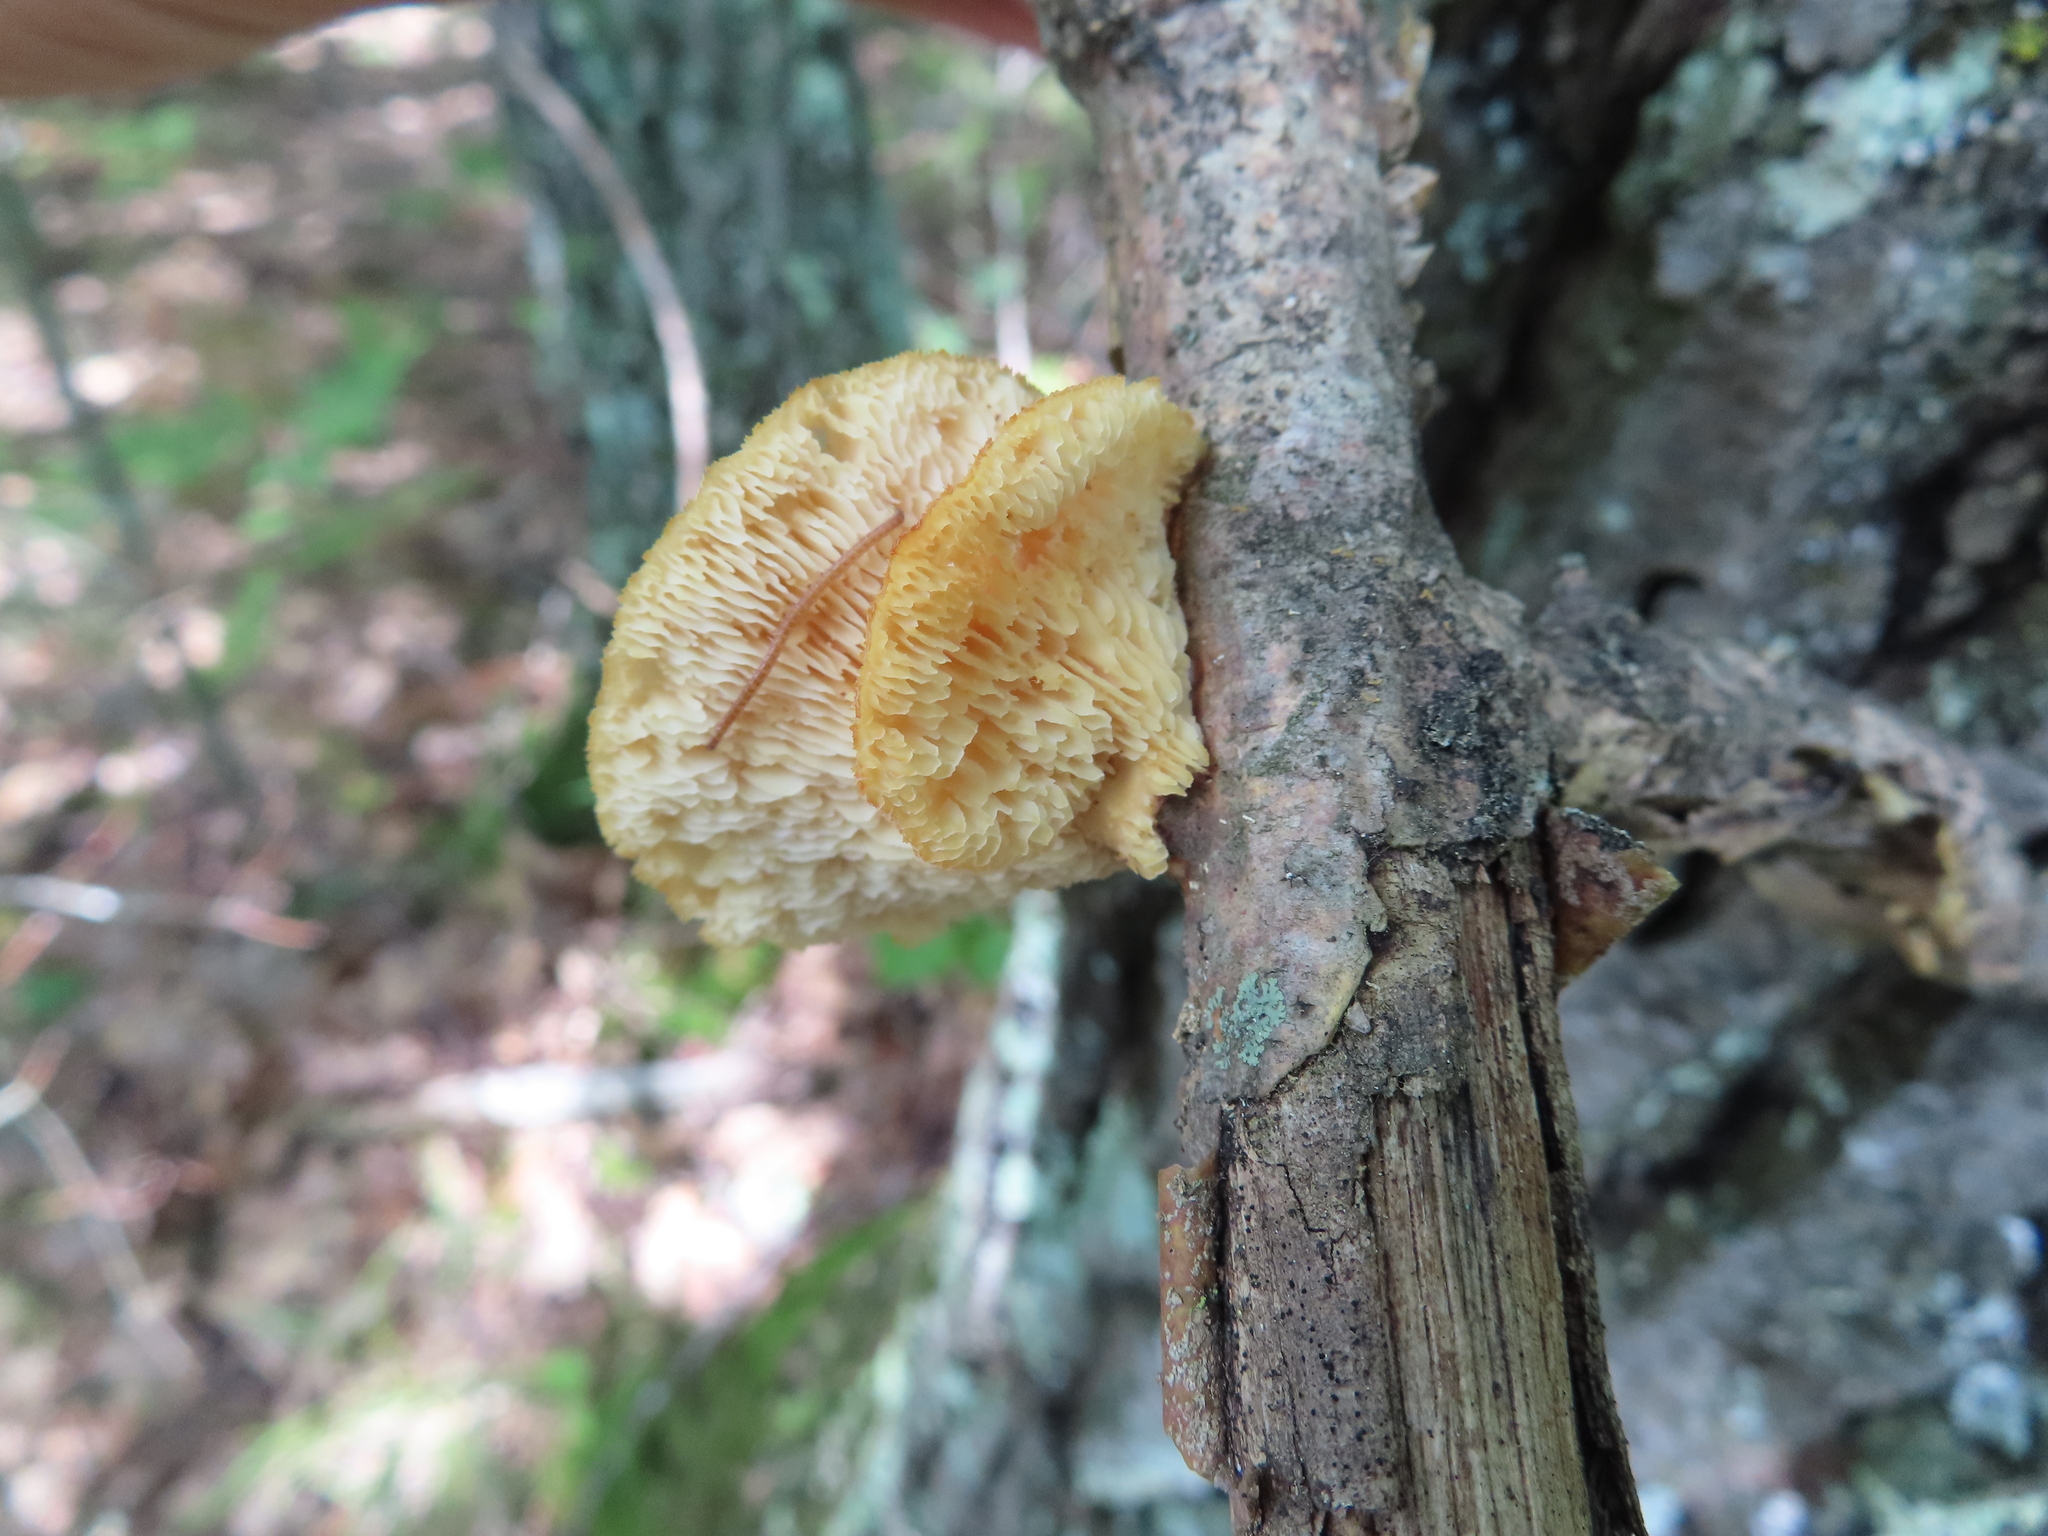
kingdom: Fungi
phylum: Basidiomycota
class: Agaricomycetes
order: Polyporales
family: Polyporaceae
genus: Neofavolus
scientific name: Neofavolus alveolaris
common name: Hexagonal-pored polypore
